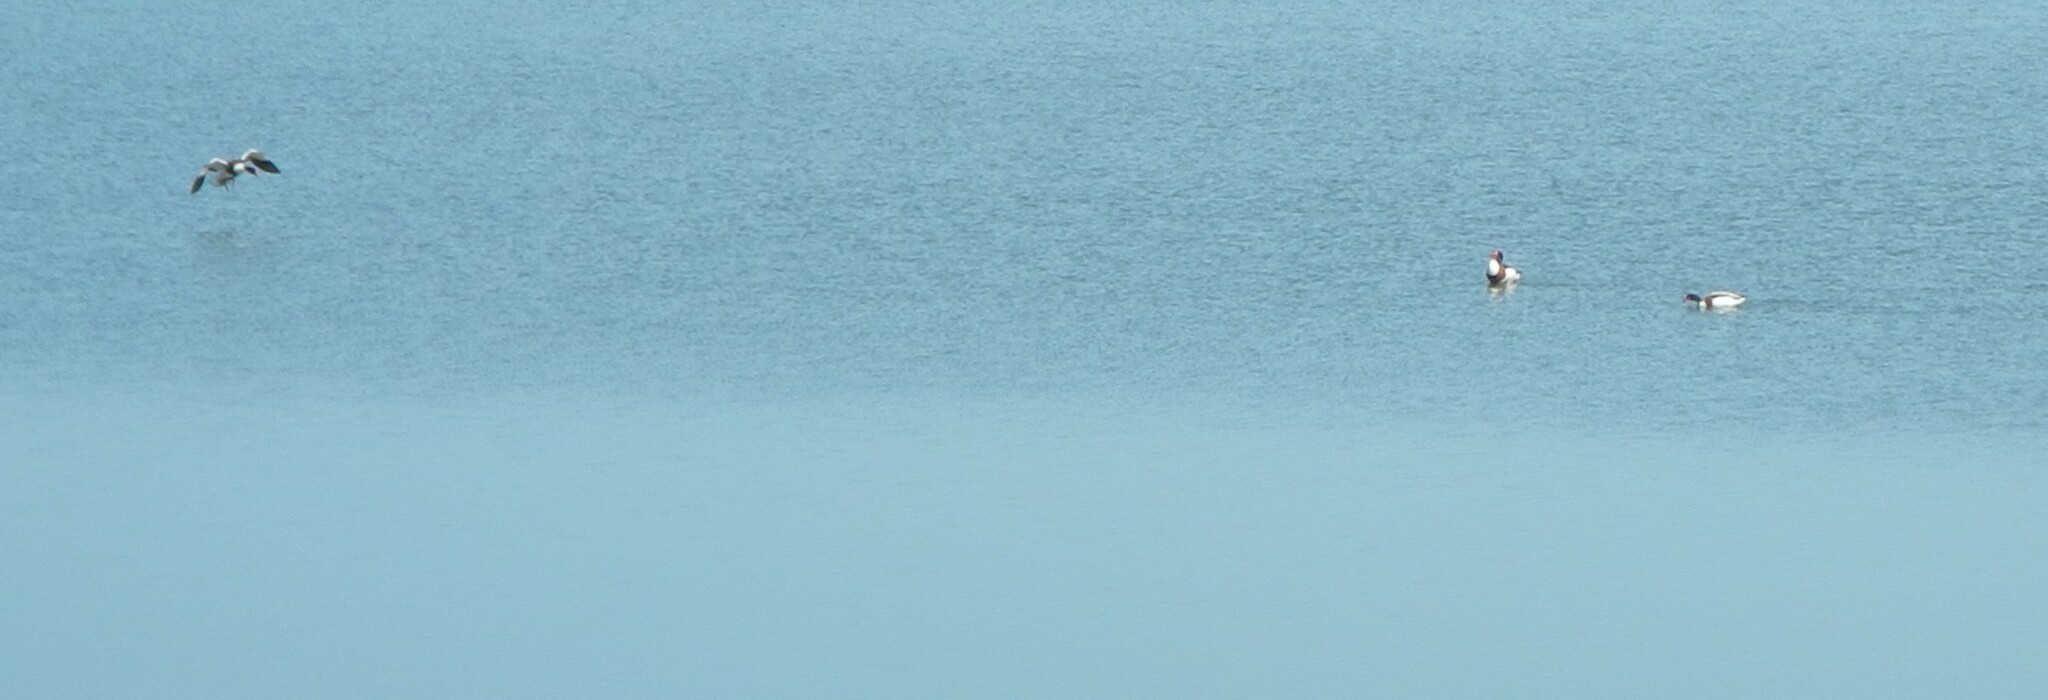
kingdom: Animalia
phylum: Chordata
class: Aves
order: Anseriformes
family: Anatidae
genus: Tadorna
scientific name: Tadorna tadorna
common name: Common shelduck
